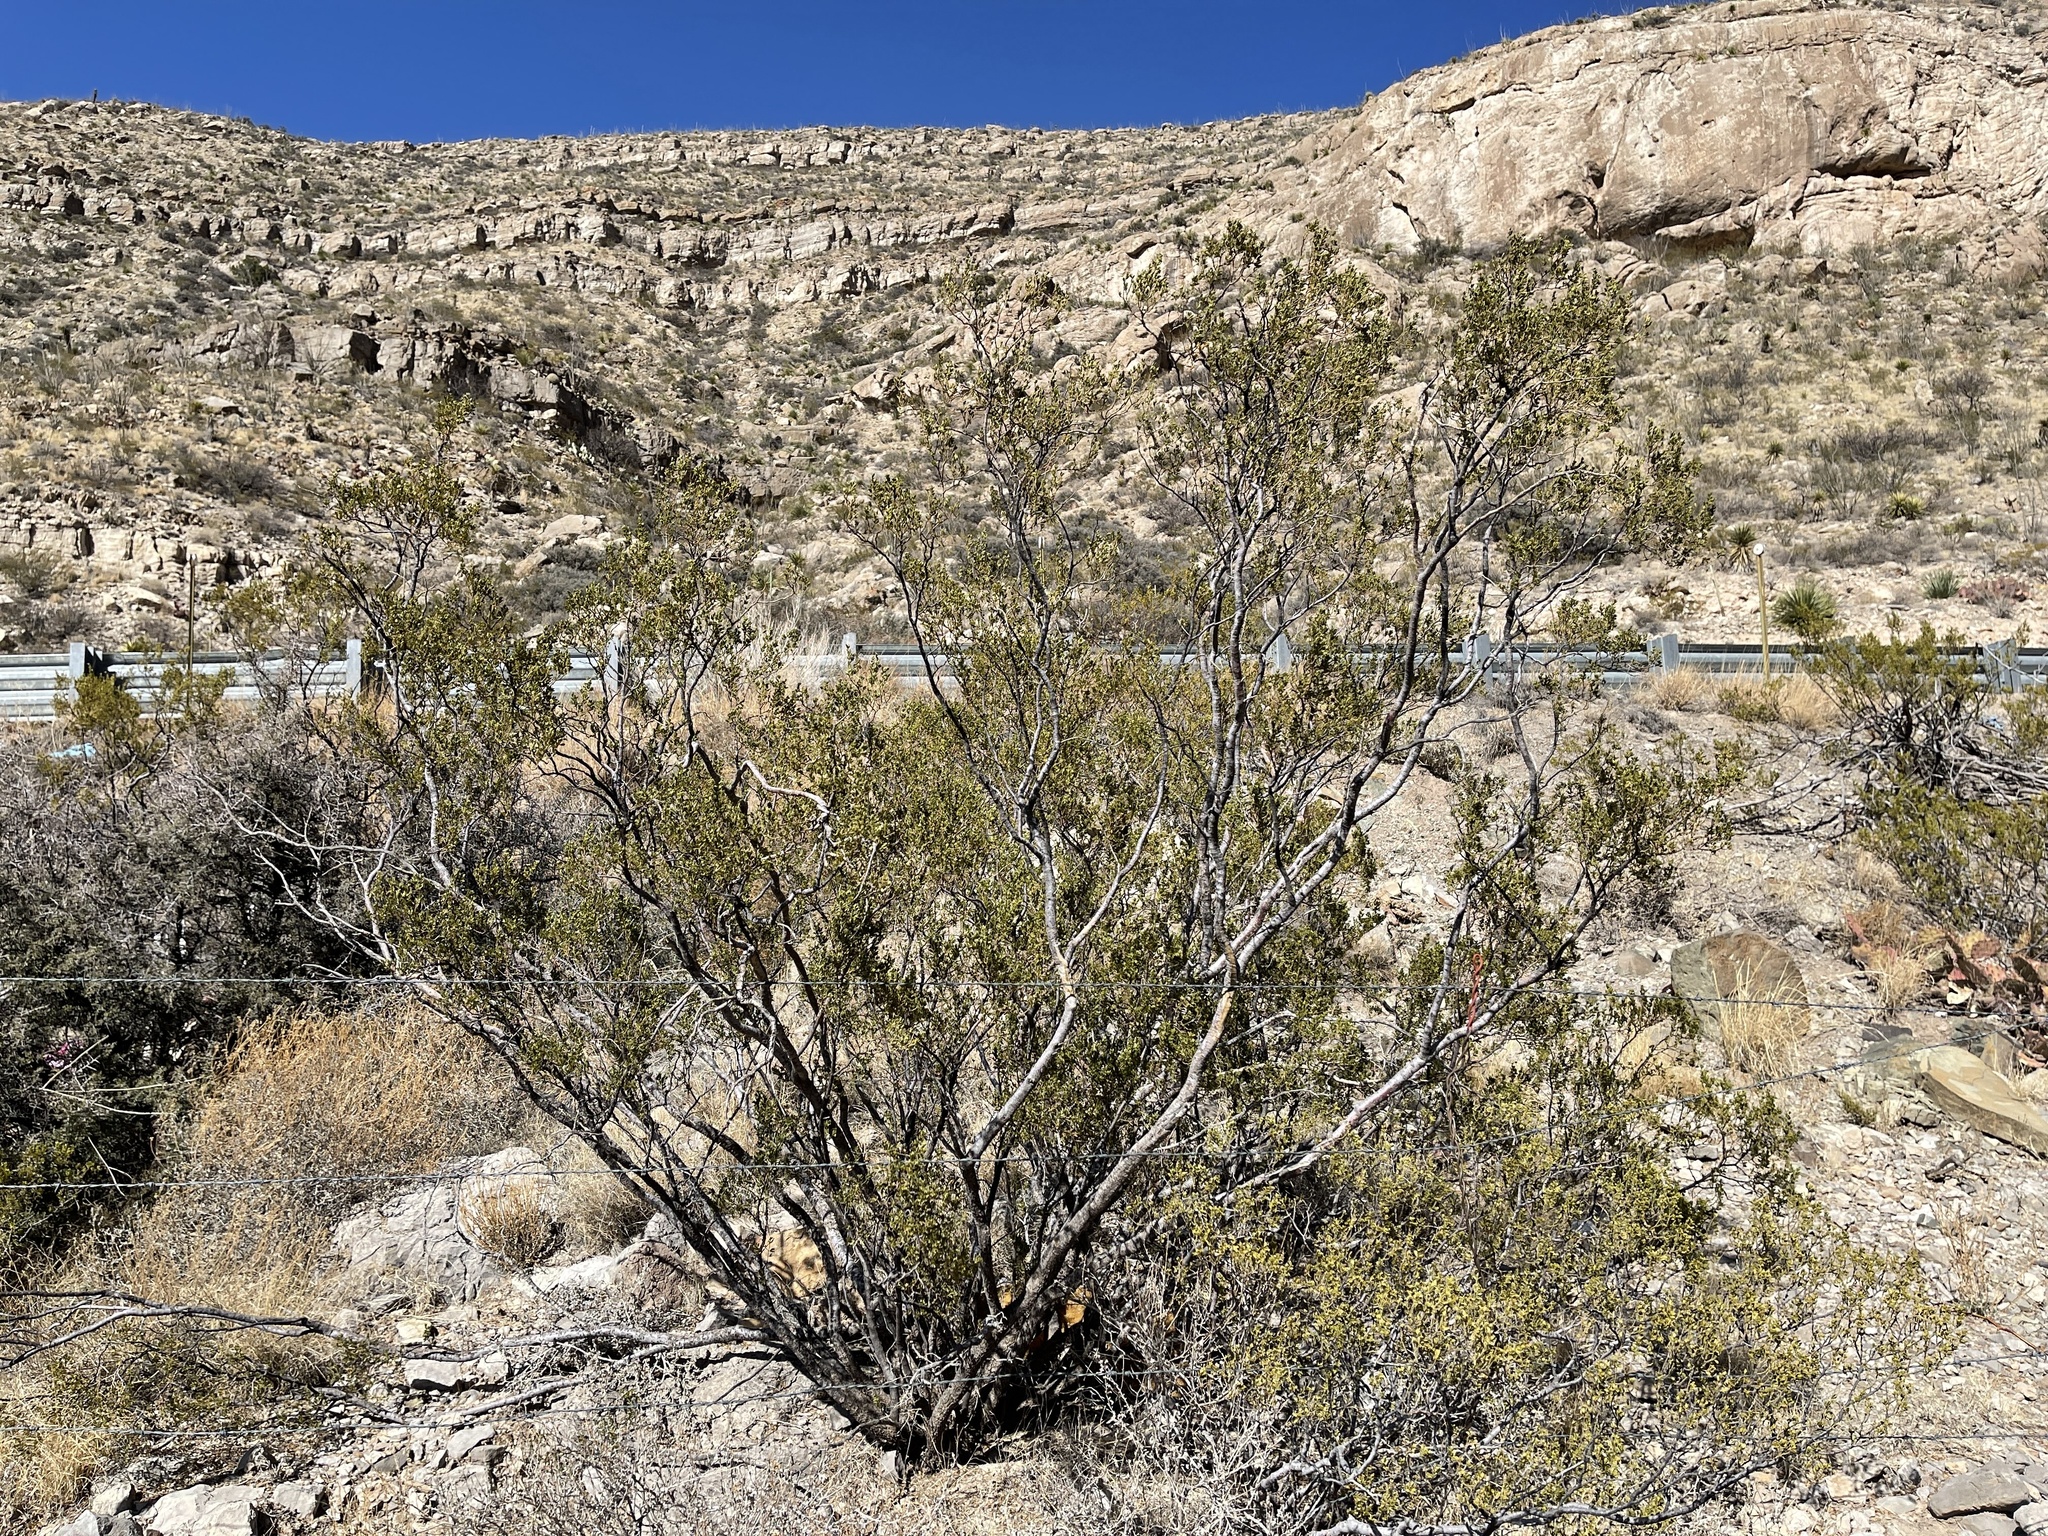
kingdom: Plantae
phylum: Tracheophyta
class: Magnoliopsida
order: Zygophyllales
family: Zygophyllaceae
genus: Larrea
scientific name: Larrea tridentata
